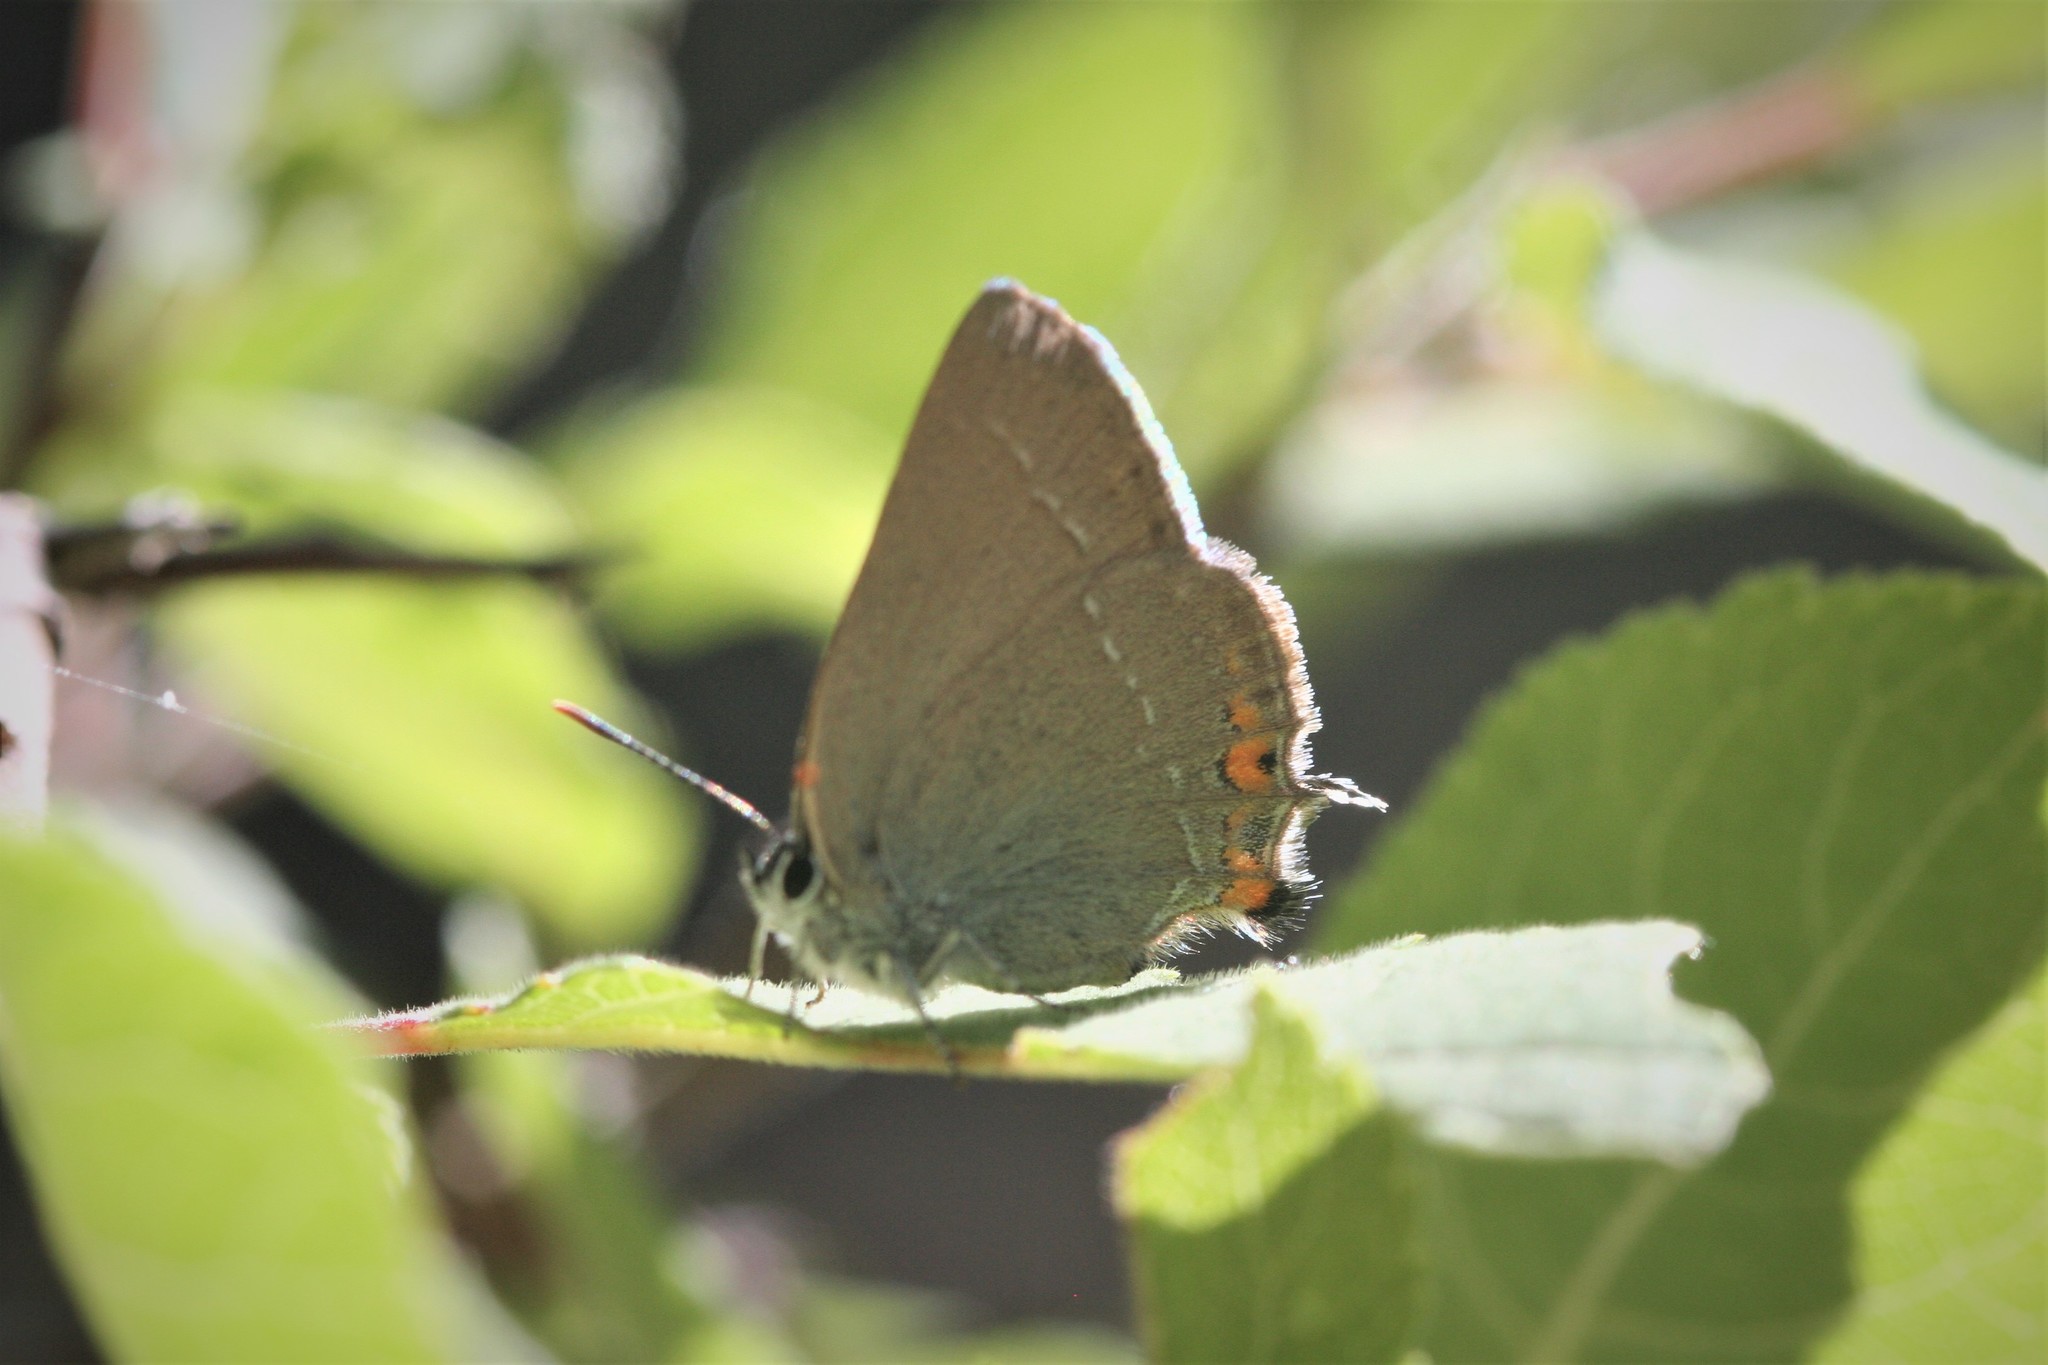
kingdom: Animalia
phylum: Arthropoda
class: Insecta
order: Lepidoptera
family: Lycaenidae
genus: Strymon
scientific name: Strymon acaciae
